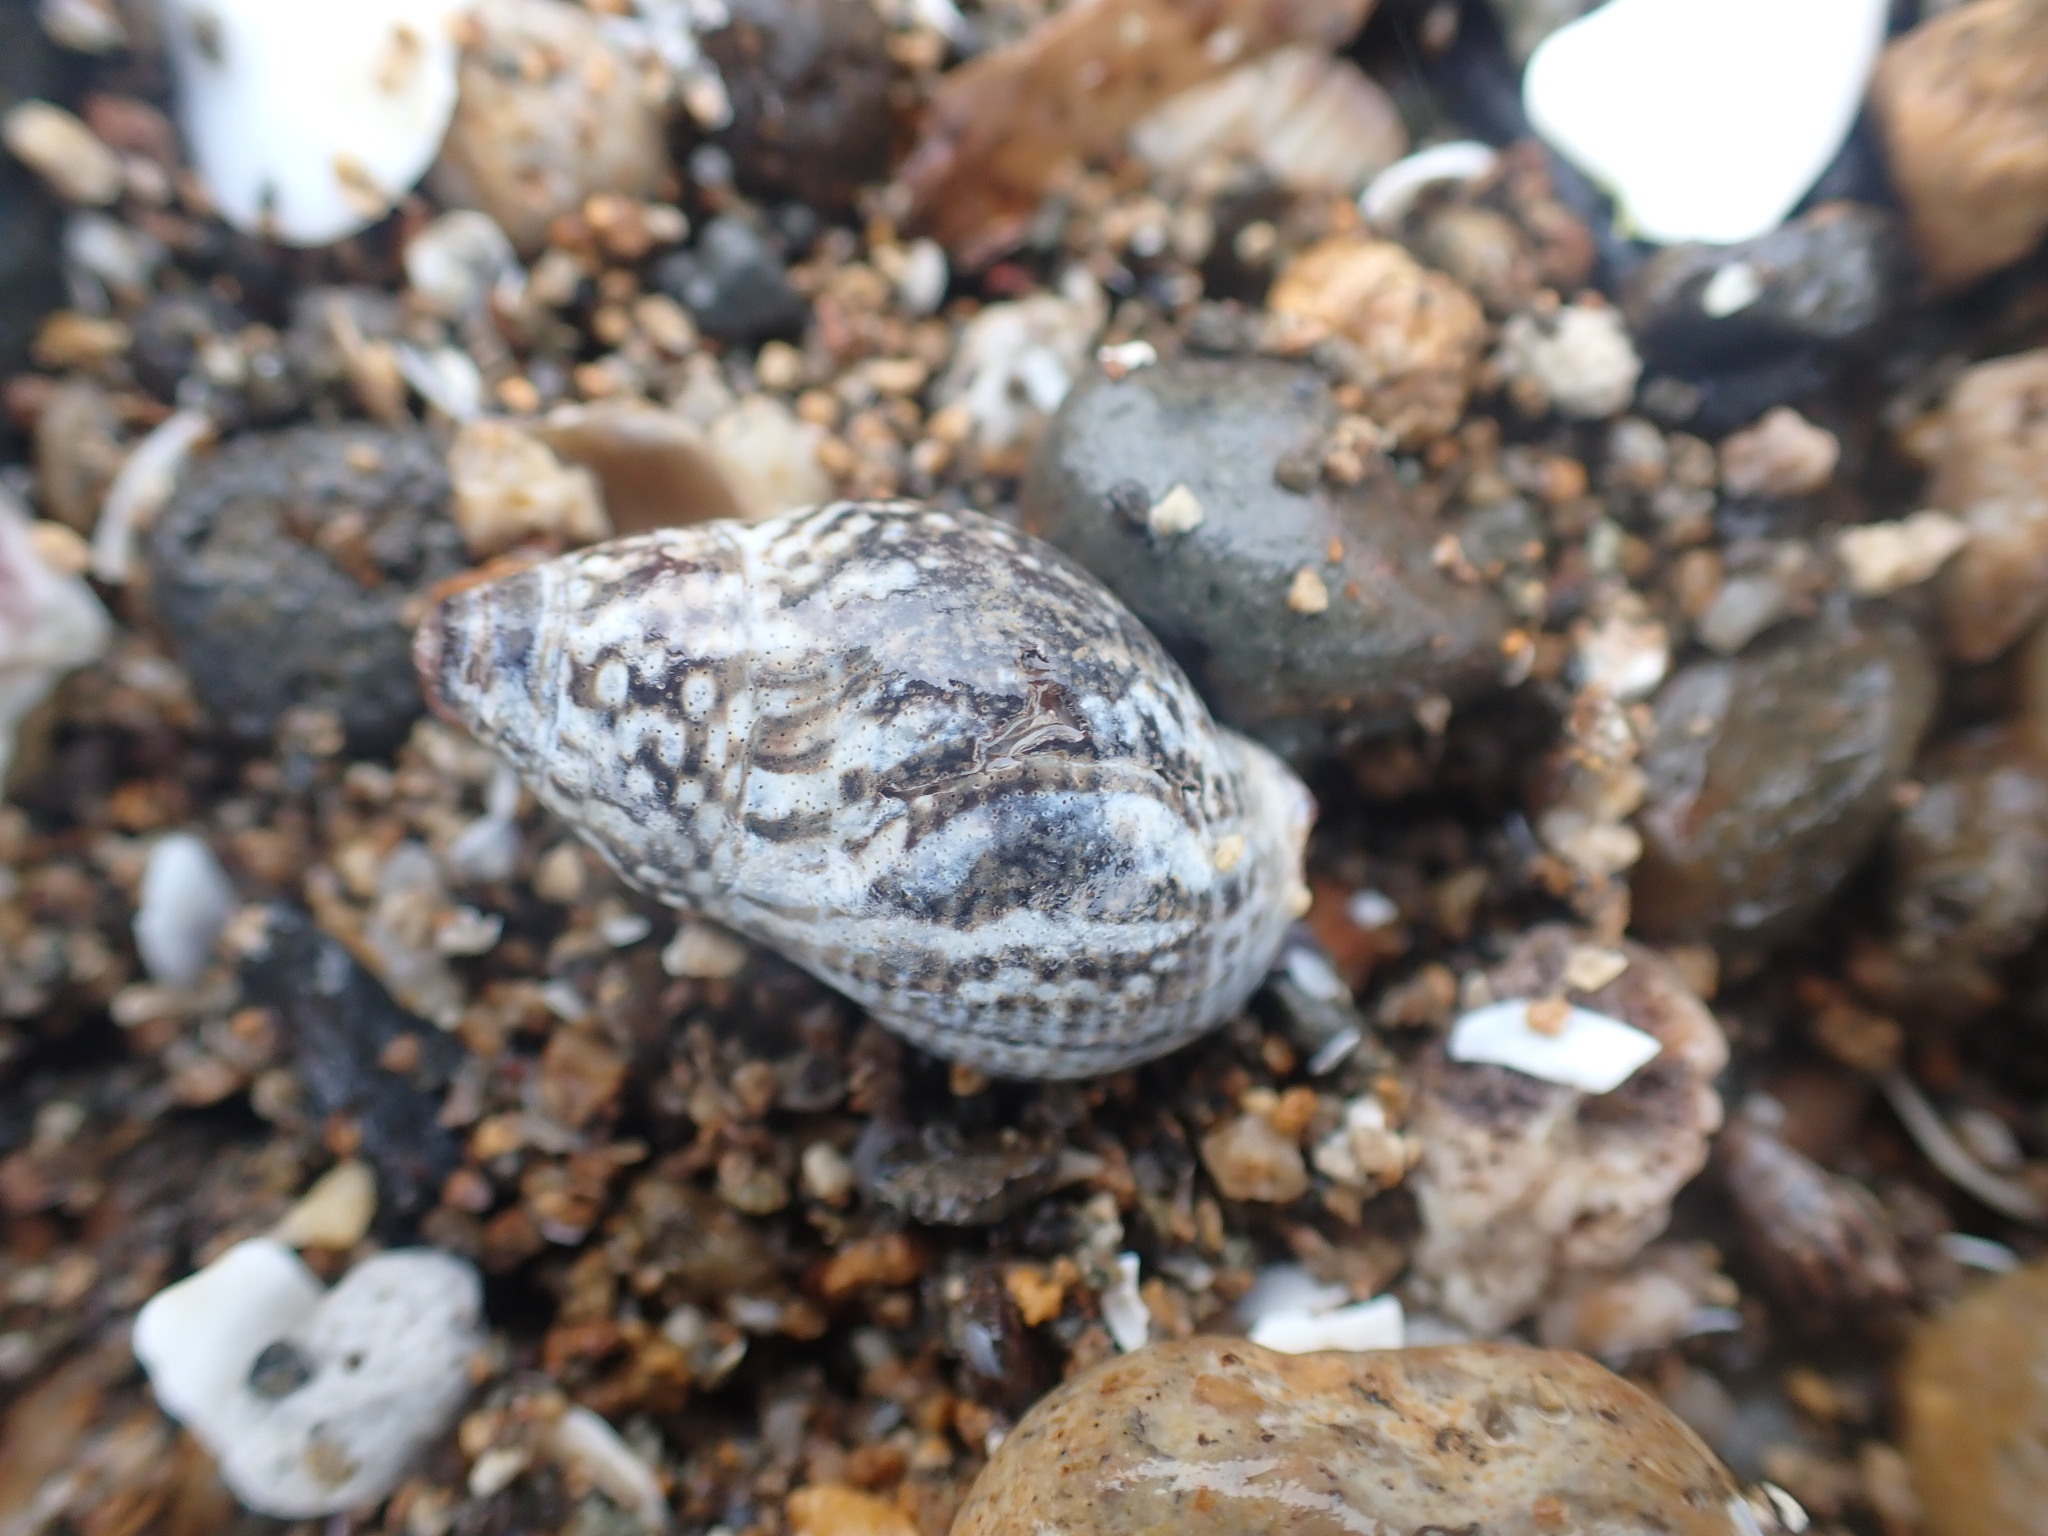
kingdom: Animalia
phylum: Mollusca
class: Gastropoda
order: Neogastropoda
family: Cominellidae
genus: Cominella
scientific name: Cominella maculosa
